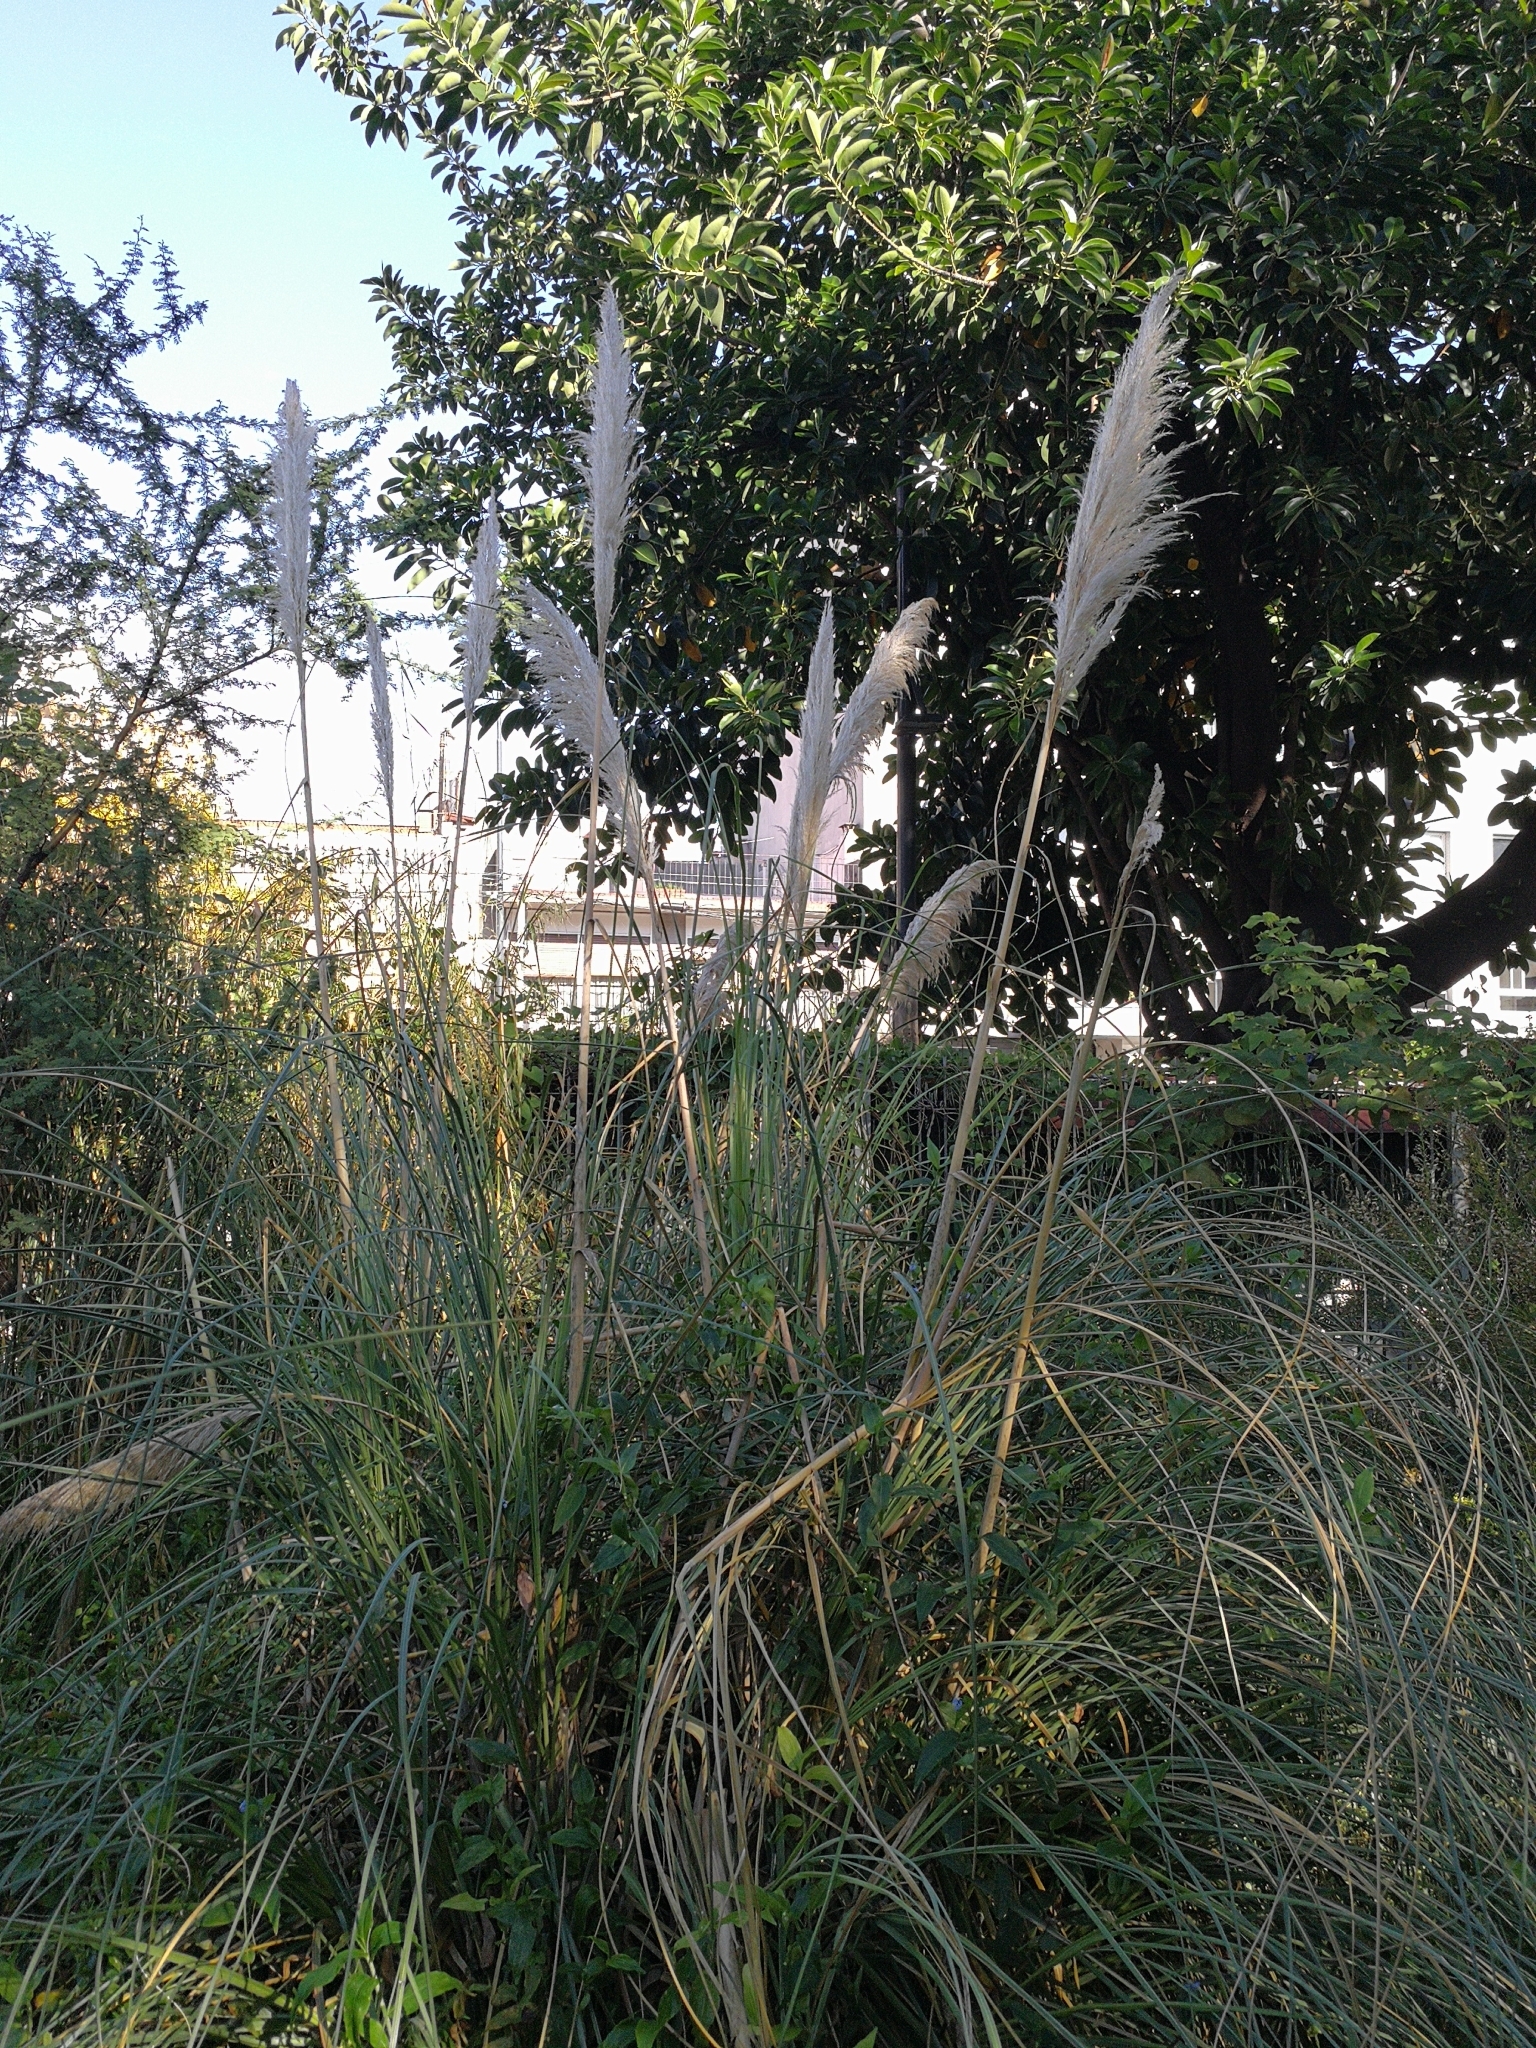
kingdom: Plantae
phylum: Tracheophyta
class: Liliopsida
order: Poales
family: Poaceae
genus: Cortaderia
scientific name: Cortaderia selloana
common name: Uruguayan pampas grass
